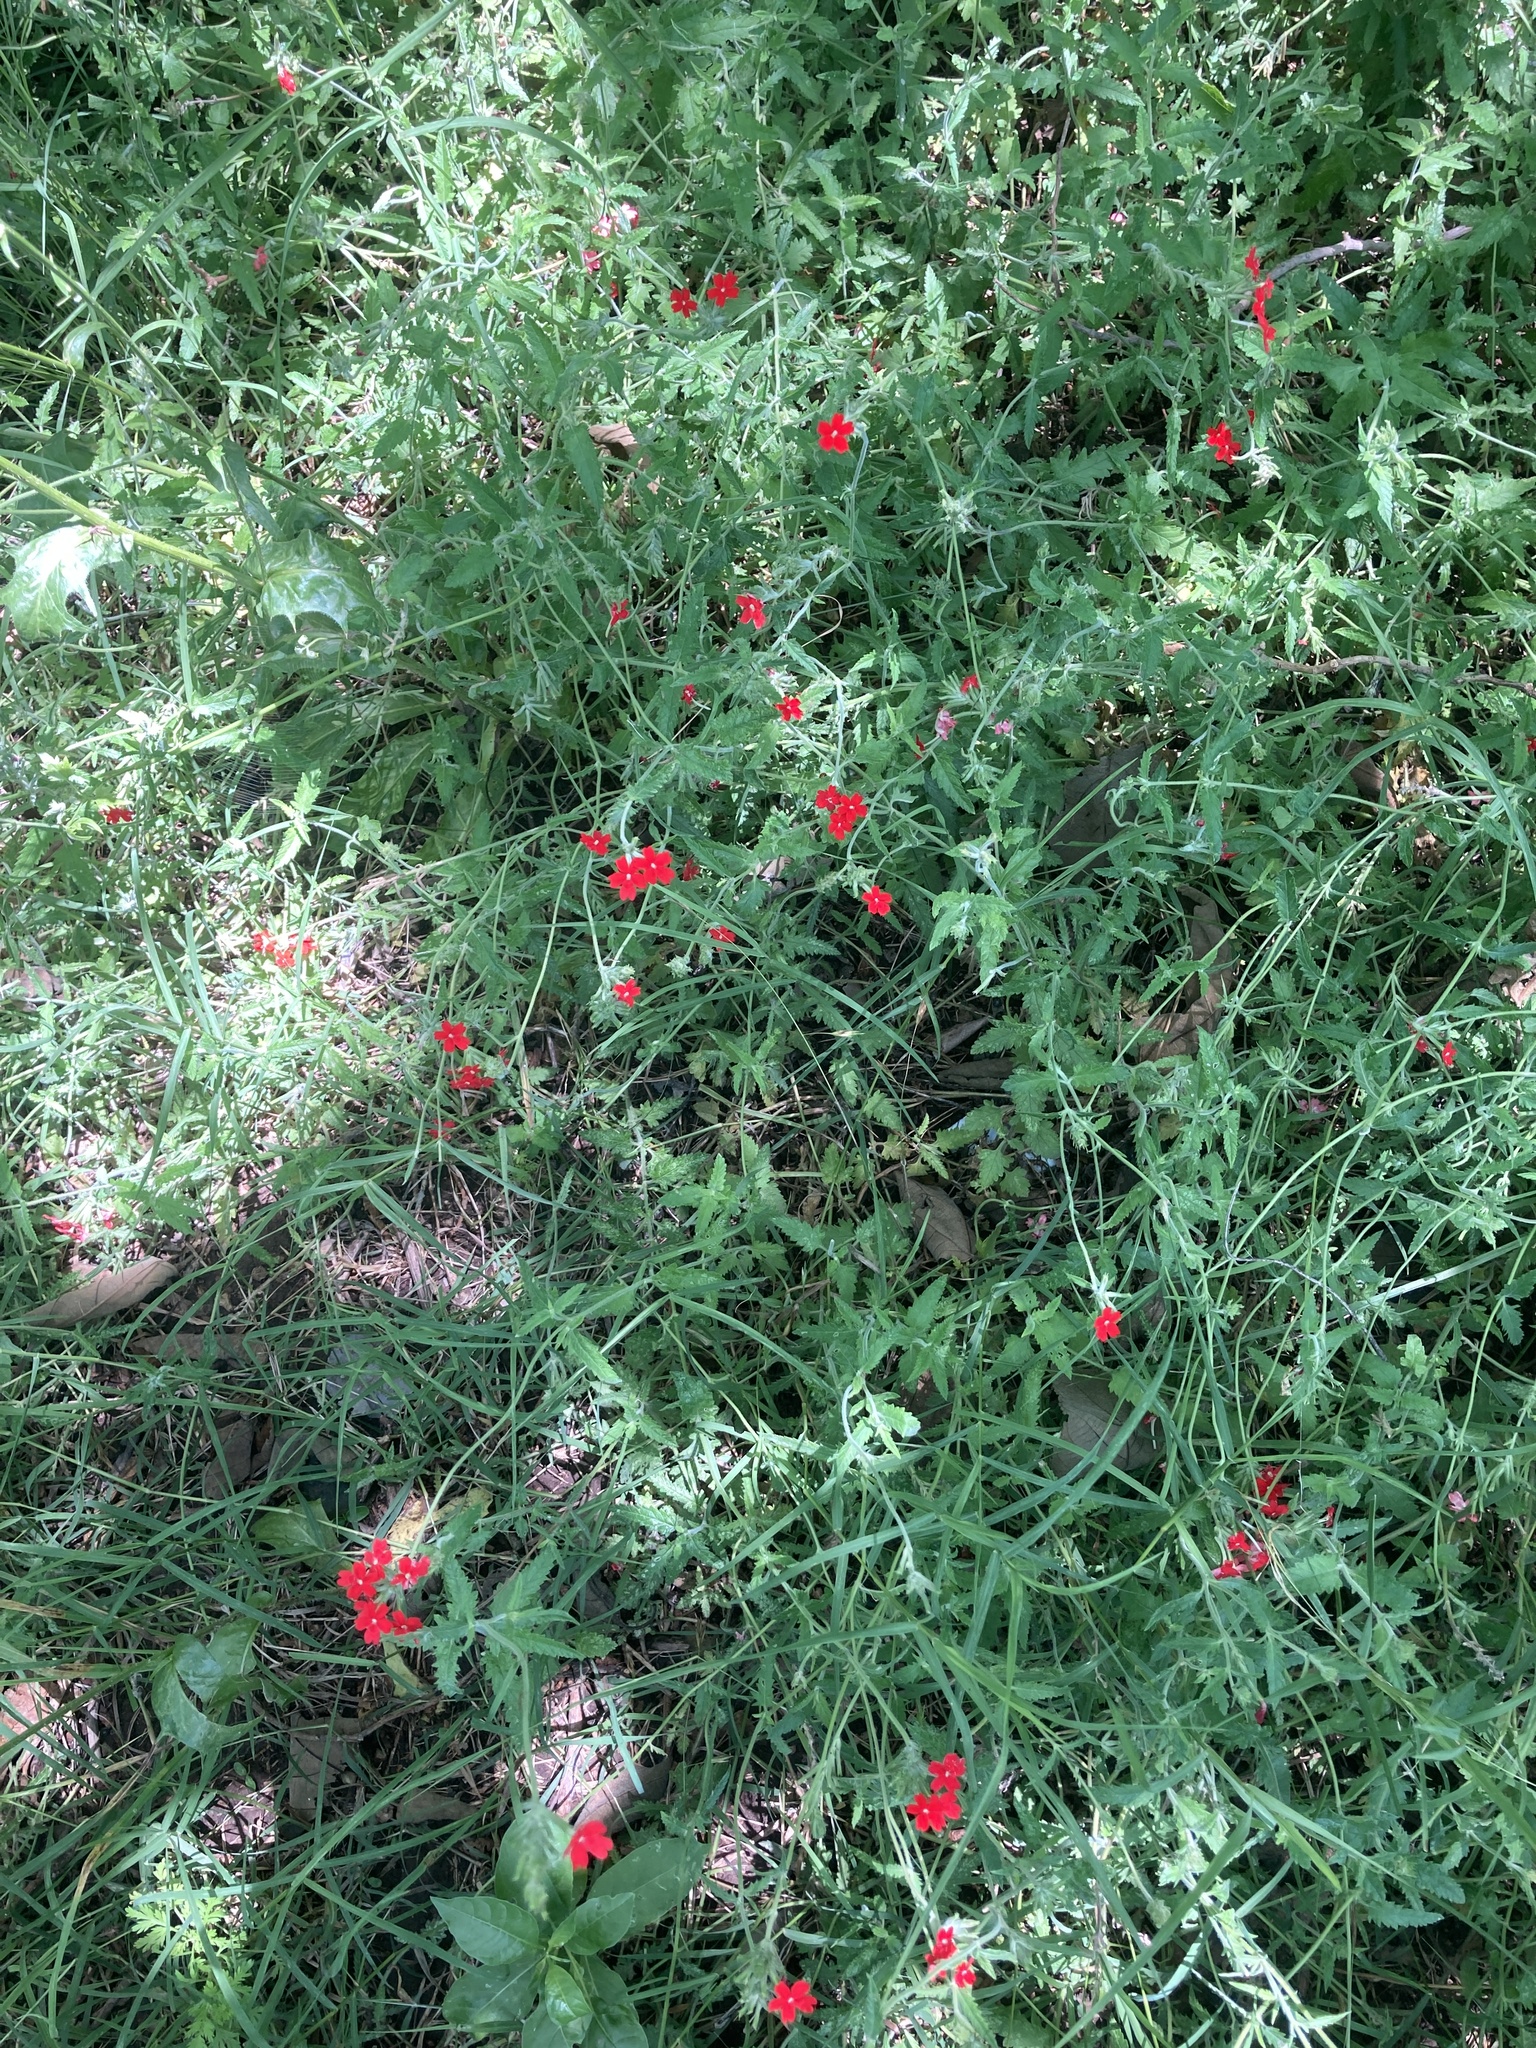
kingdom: Plantae
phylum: Tracheophyta
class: Magnoliopsida
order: Lamiales
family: Verbenaceae
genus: Verbena
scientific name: Verbena tweedieana
